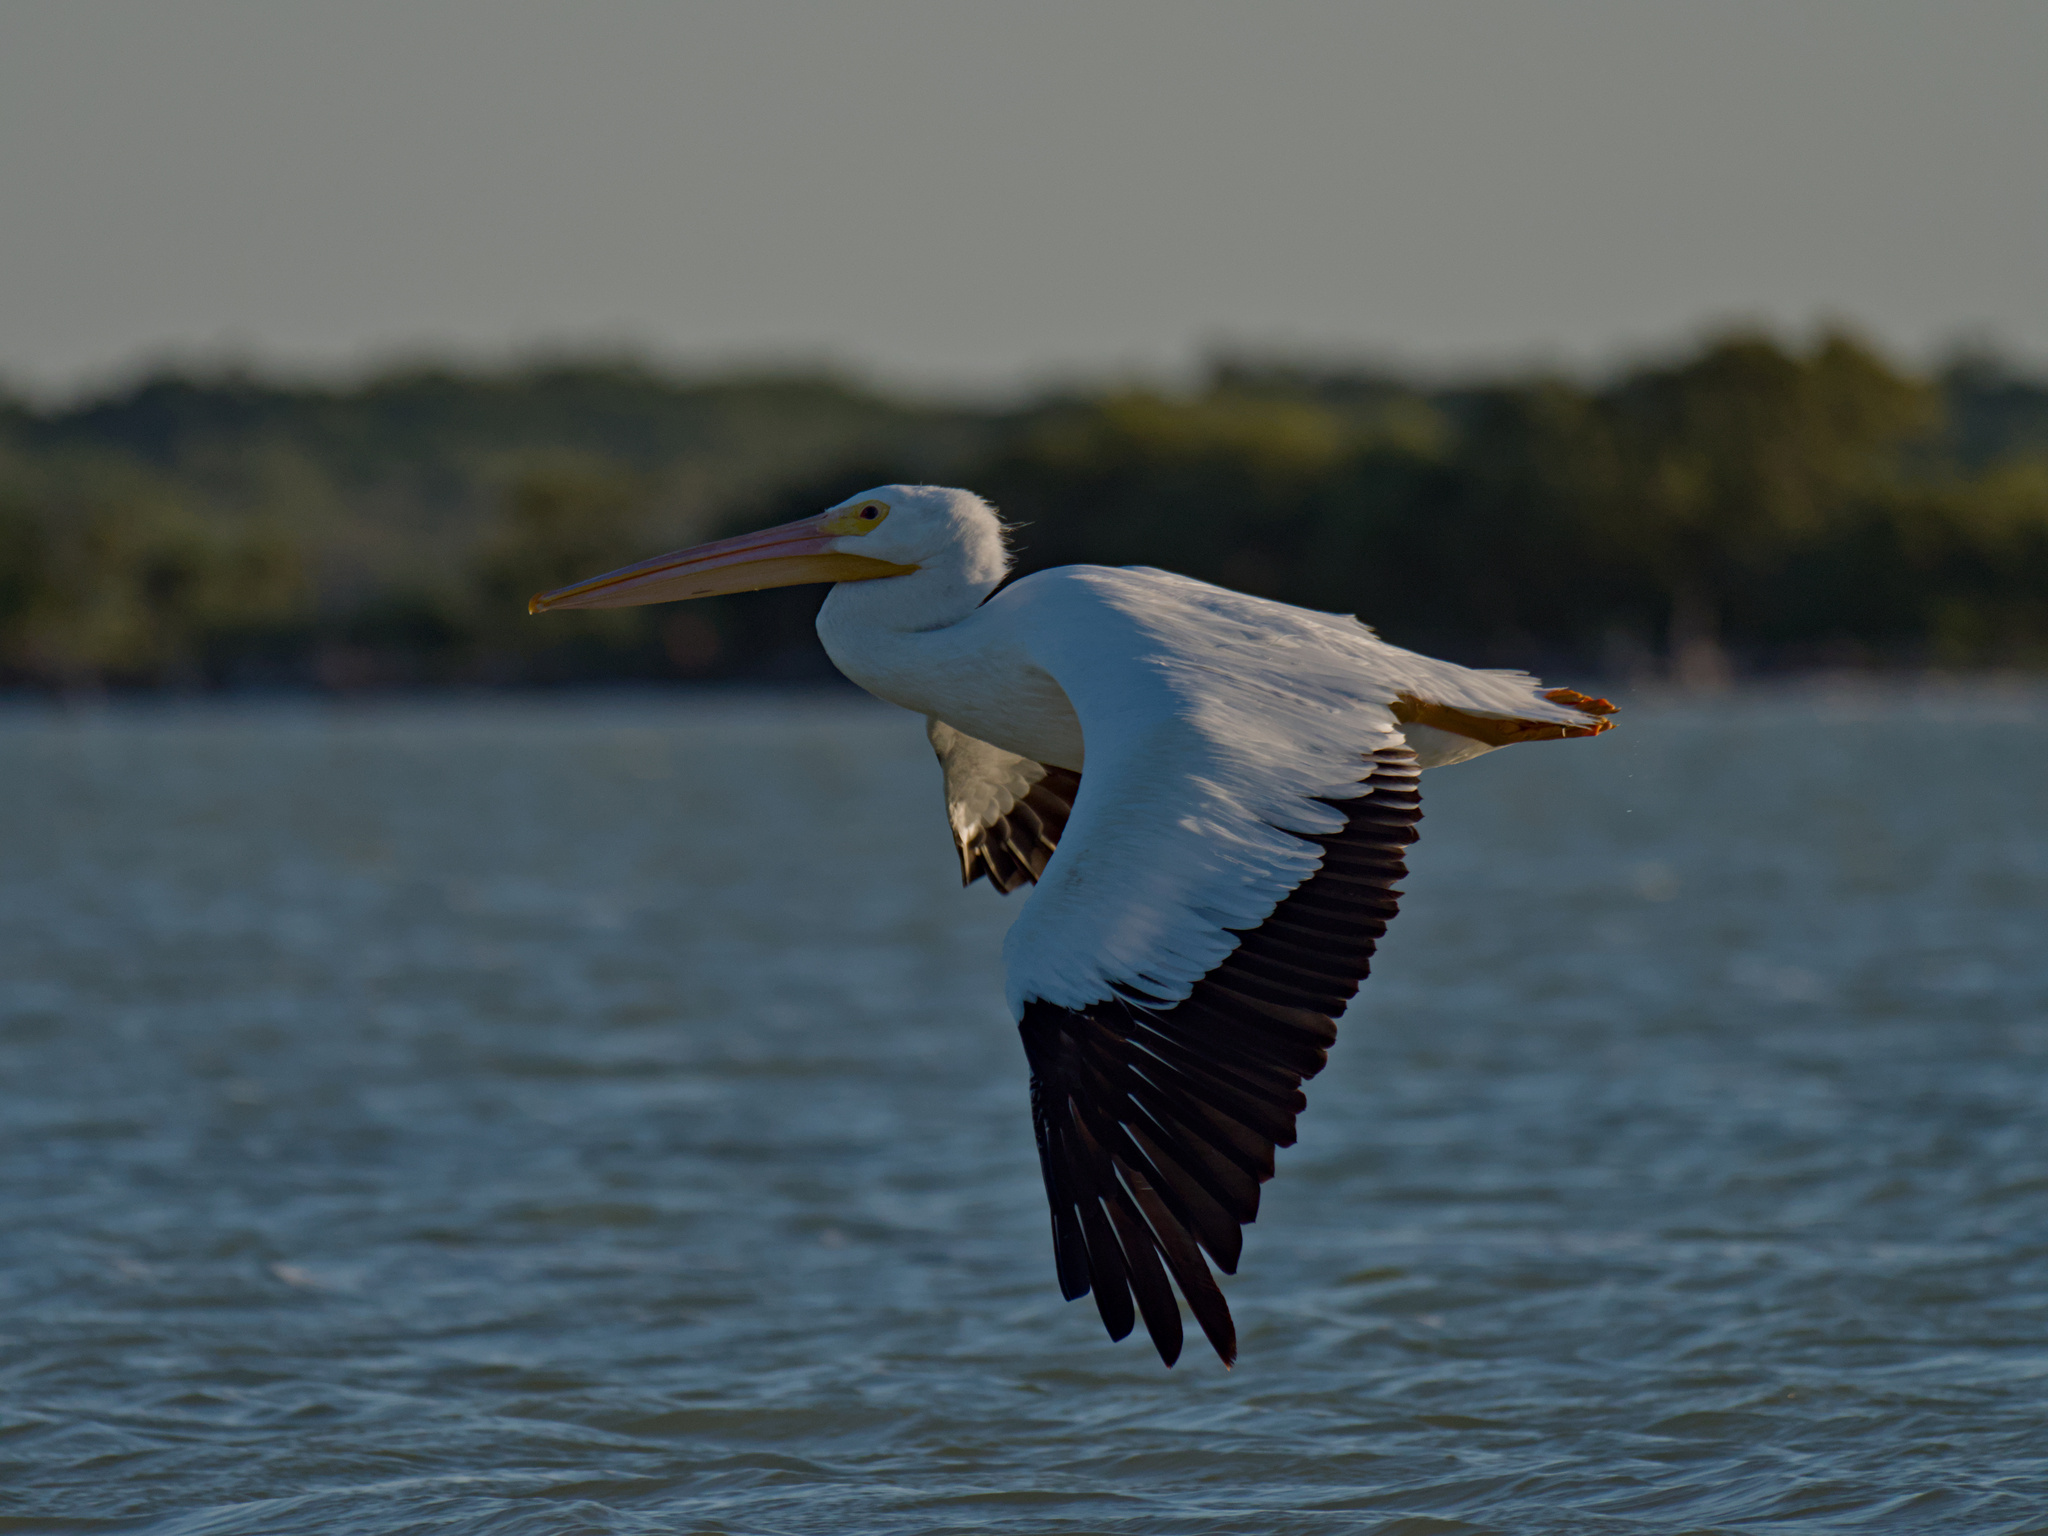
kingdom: Animalia
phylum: Chordata
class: Aves
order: Pelecaniformes
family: Pelecanidae
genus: Pelecanus
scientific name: Pelecanus erythrorhynchos
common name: American white pelican
